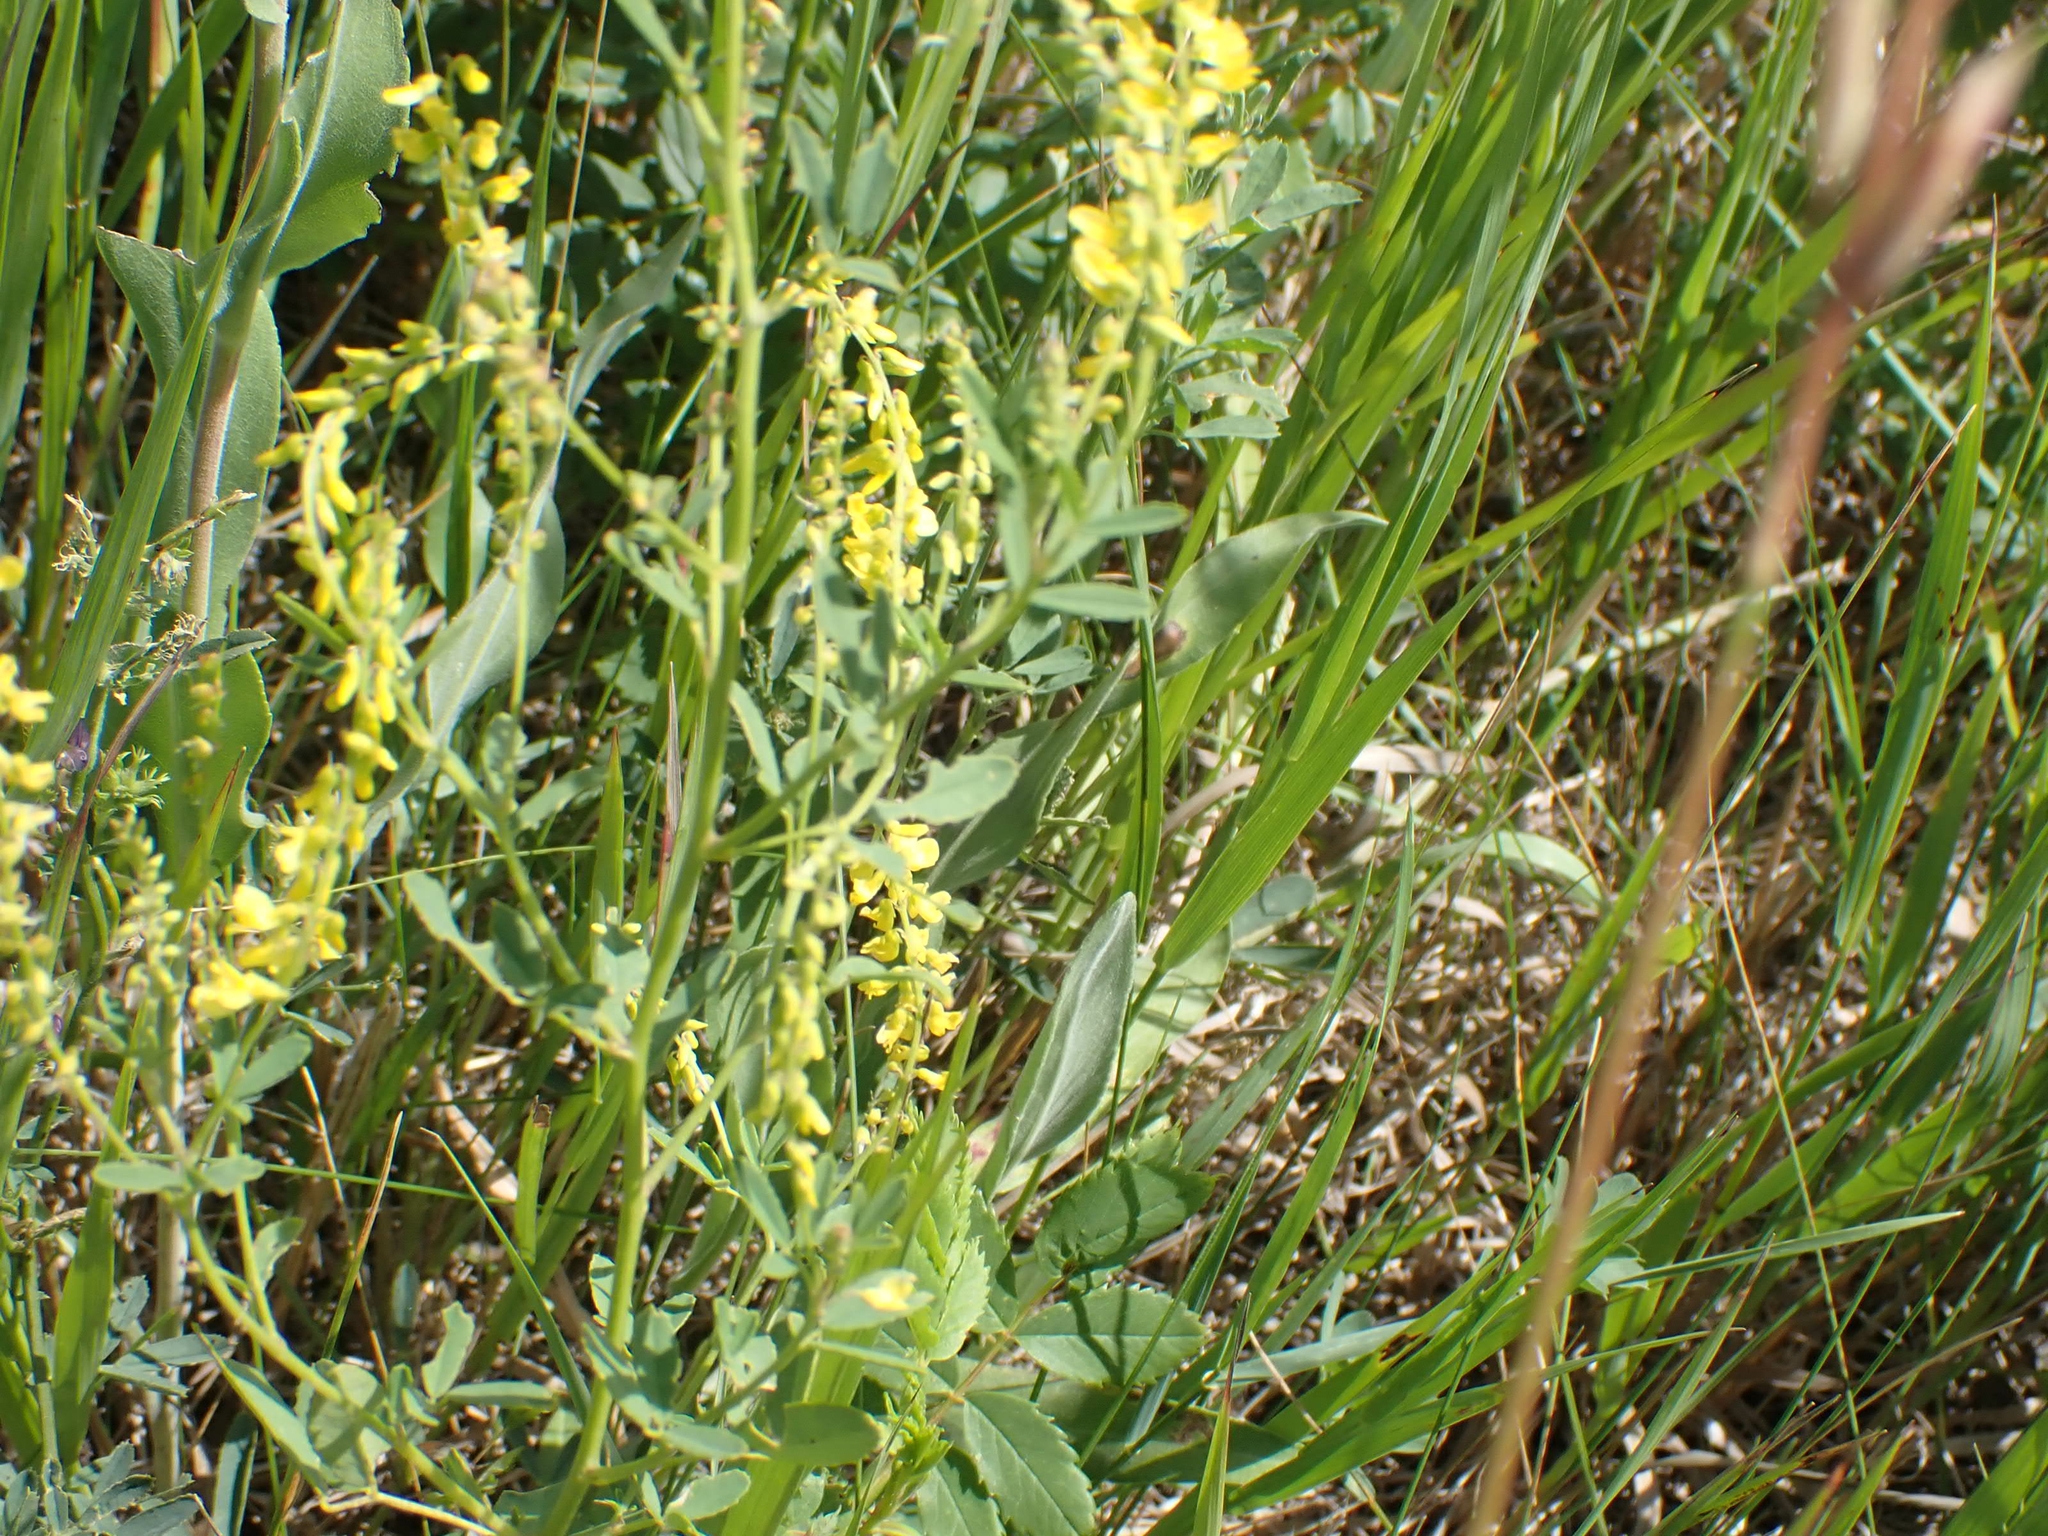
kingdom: Plantae
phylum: Tracheophyta
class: Magnoliopsida
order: Fabales
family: Fabaceae
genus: Melilotus
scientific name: Melilotus officinalis
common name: Sweetclover
